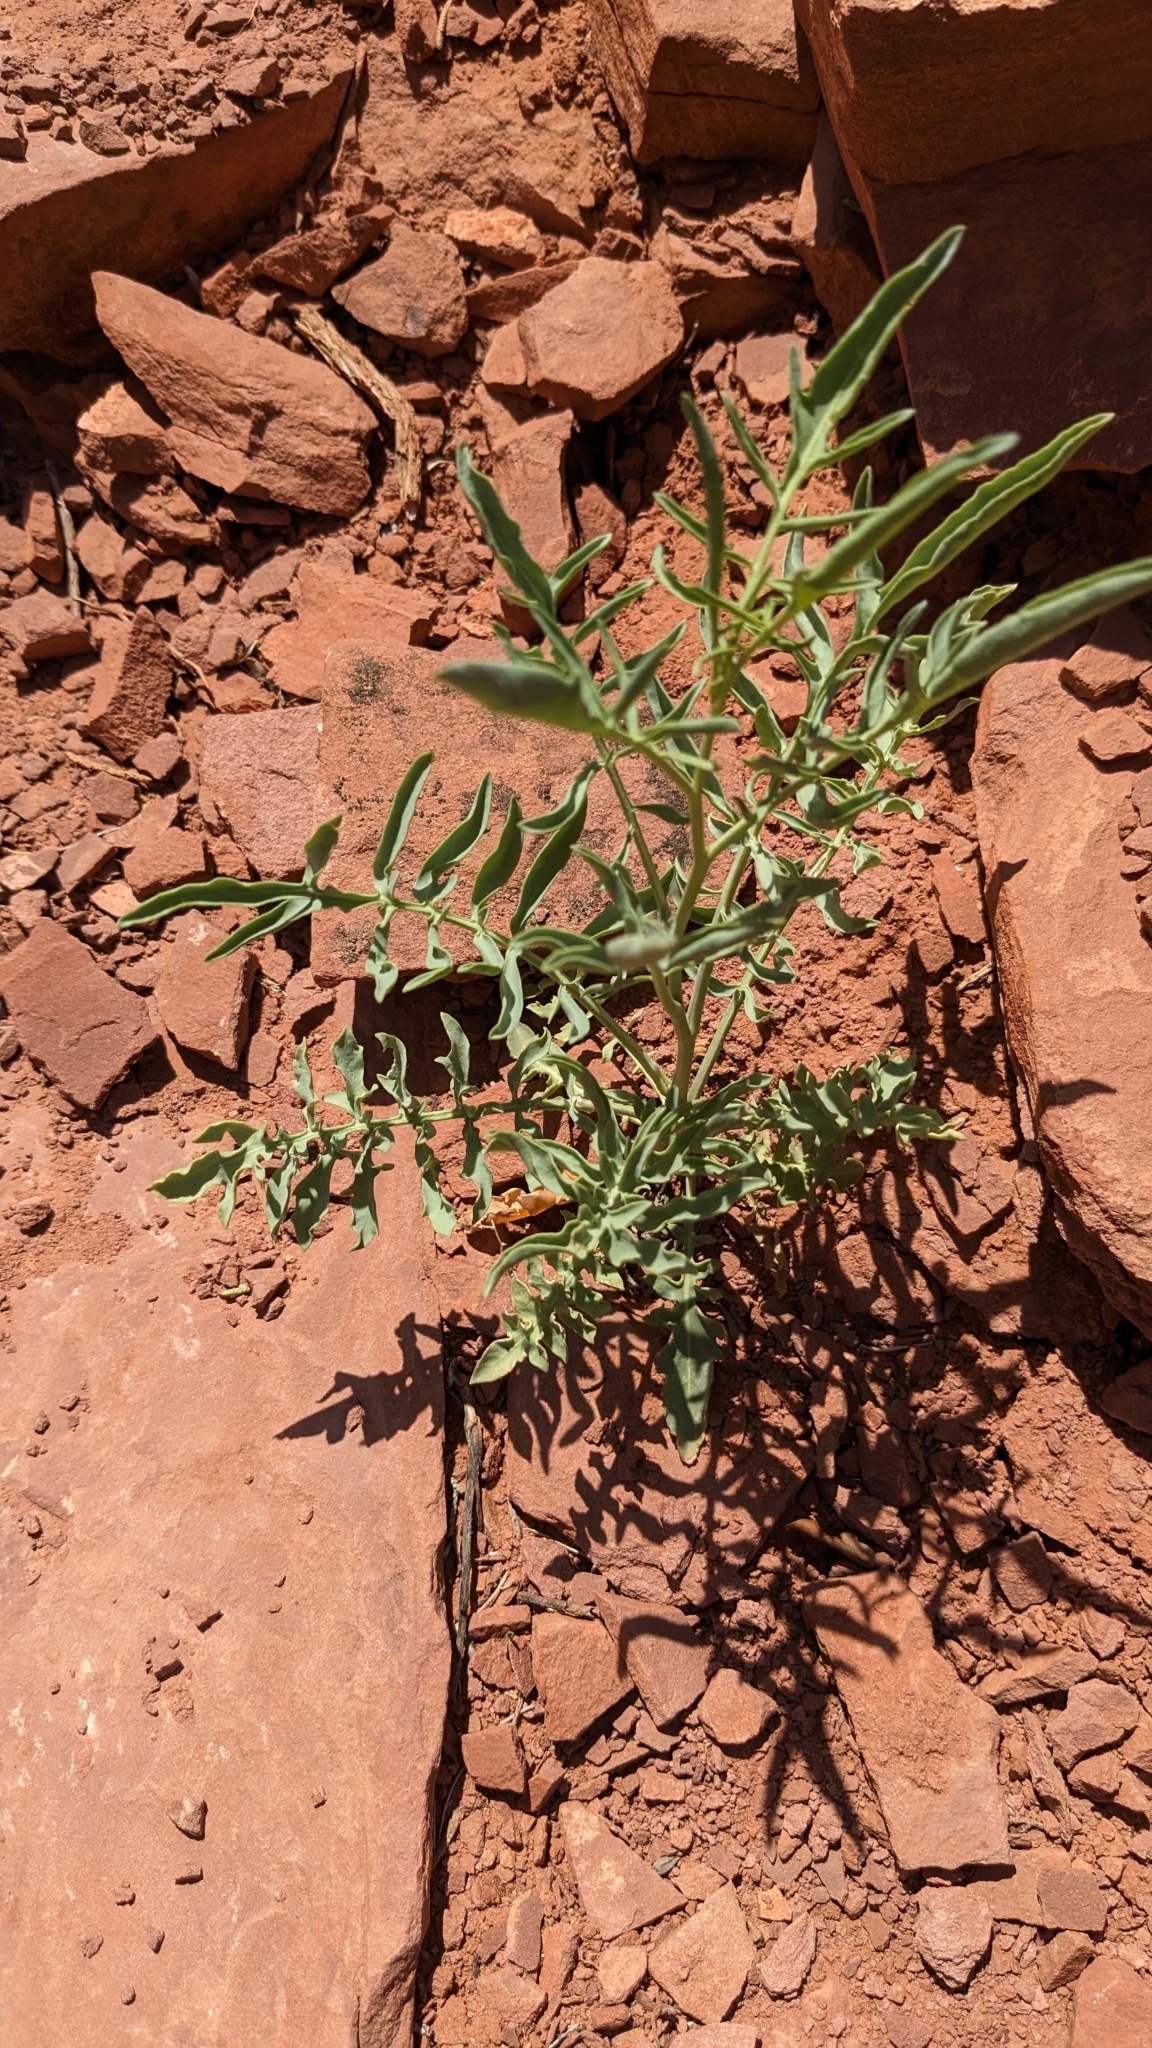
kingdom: Plantae
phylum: Tracheophyta
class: Magnoliopsida
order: Brassicales
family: Brassicaceae
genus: Stanleya
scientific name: Stanleya pinnata
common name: Prince's-plume
